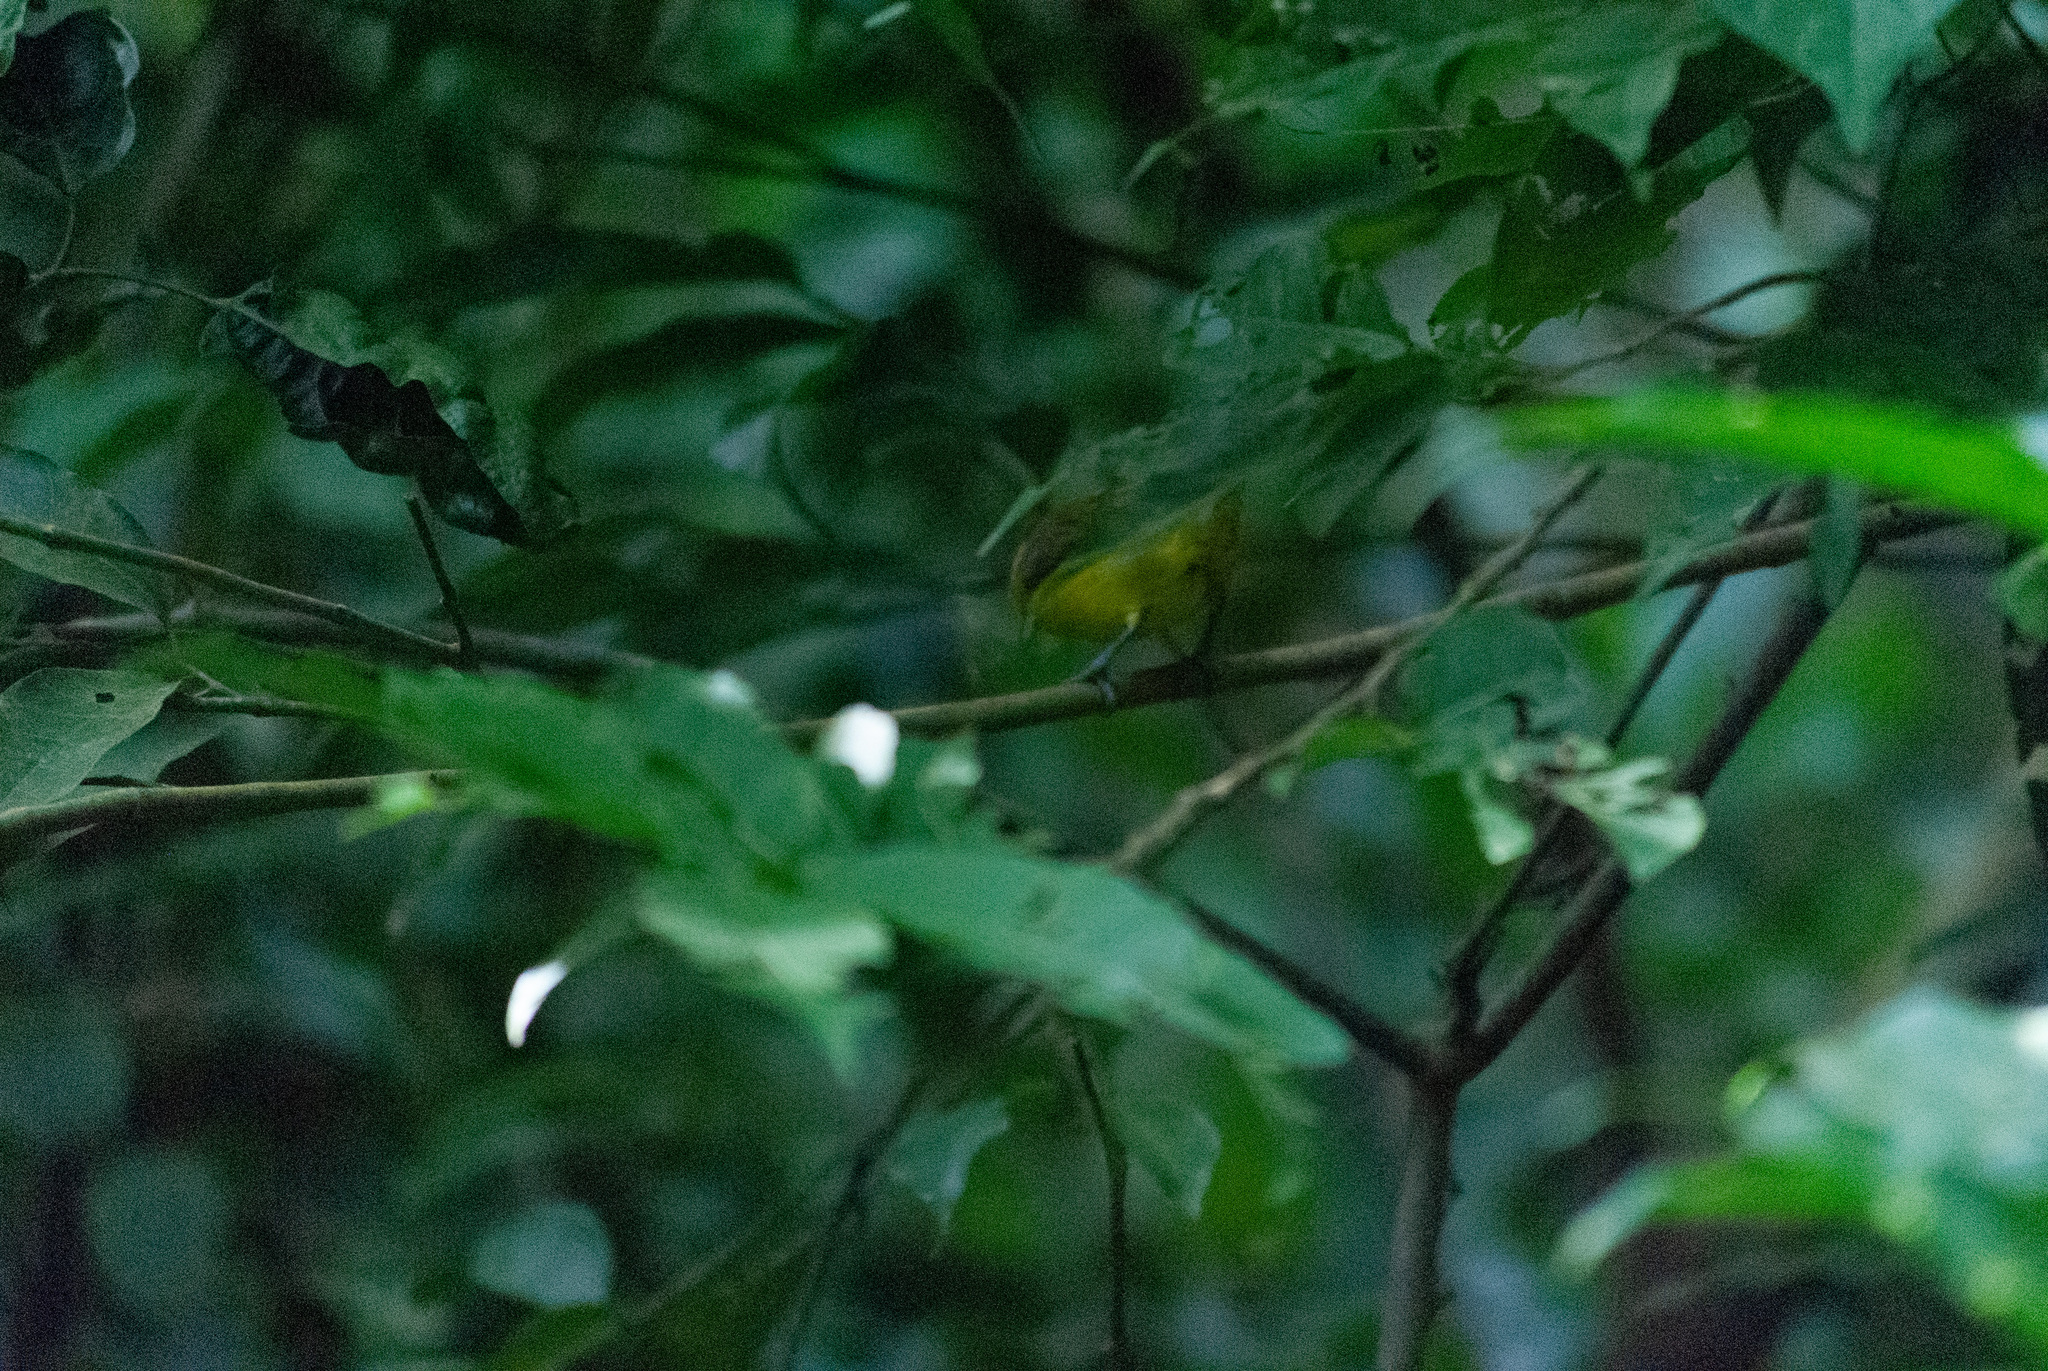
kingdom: Animalia
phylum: Chordata
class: Aves
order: Passeriformes
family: Fringillidae
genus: Euphonia
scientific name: Euphonia laniirostris
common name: Thick-billed euphonia
